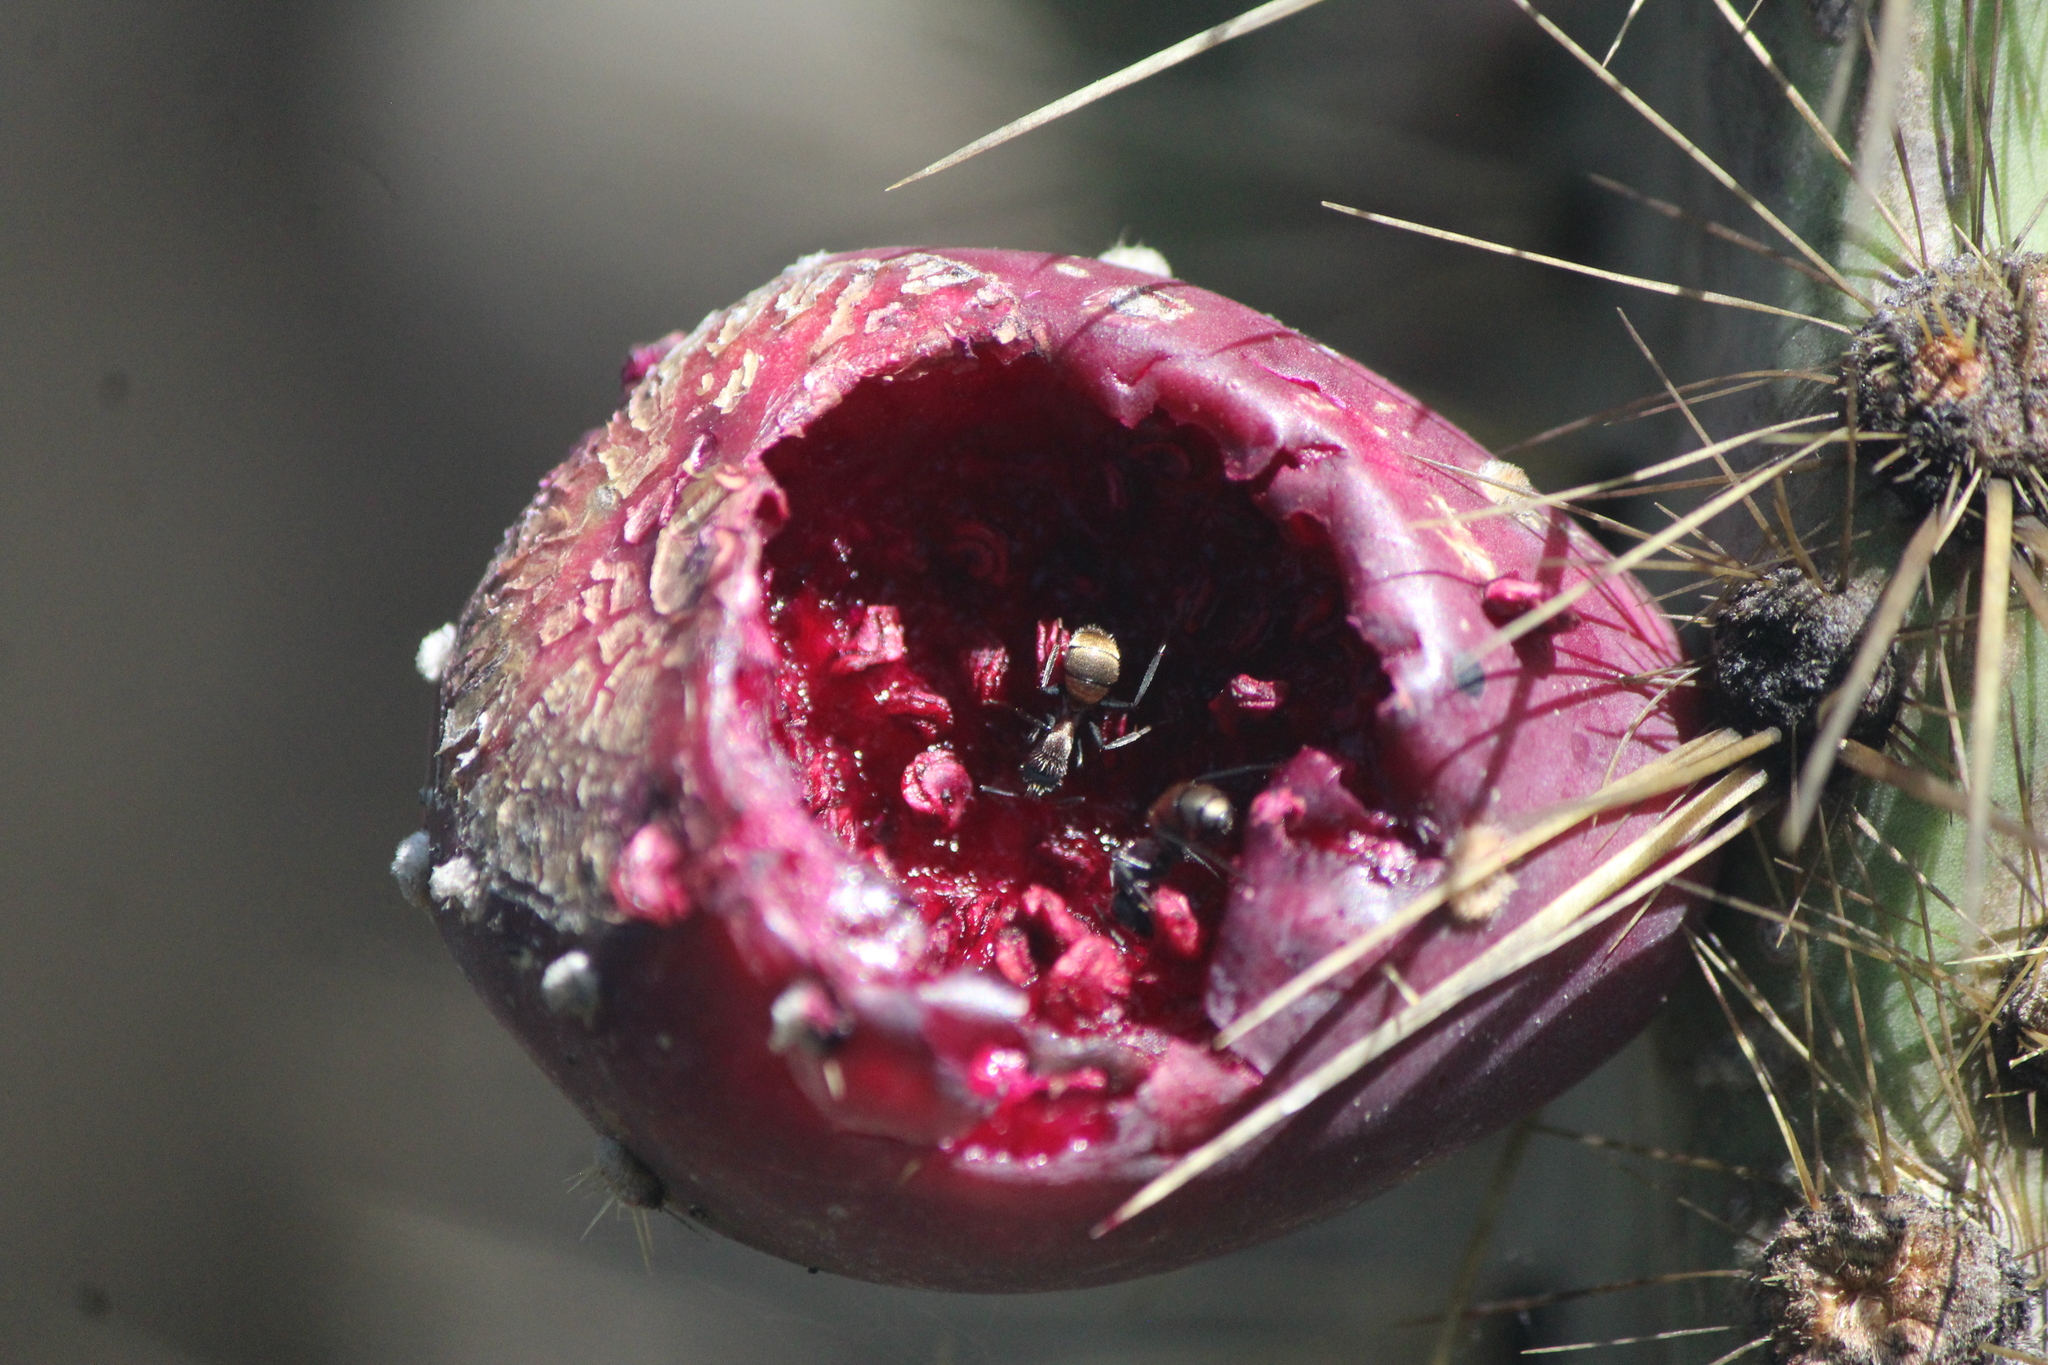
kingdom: Animalia
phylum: Arthropoda
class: Insecta
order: Hymenoptera
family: Formicidae
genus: Camponotus
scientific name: Camponotus pellarius
